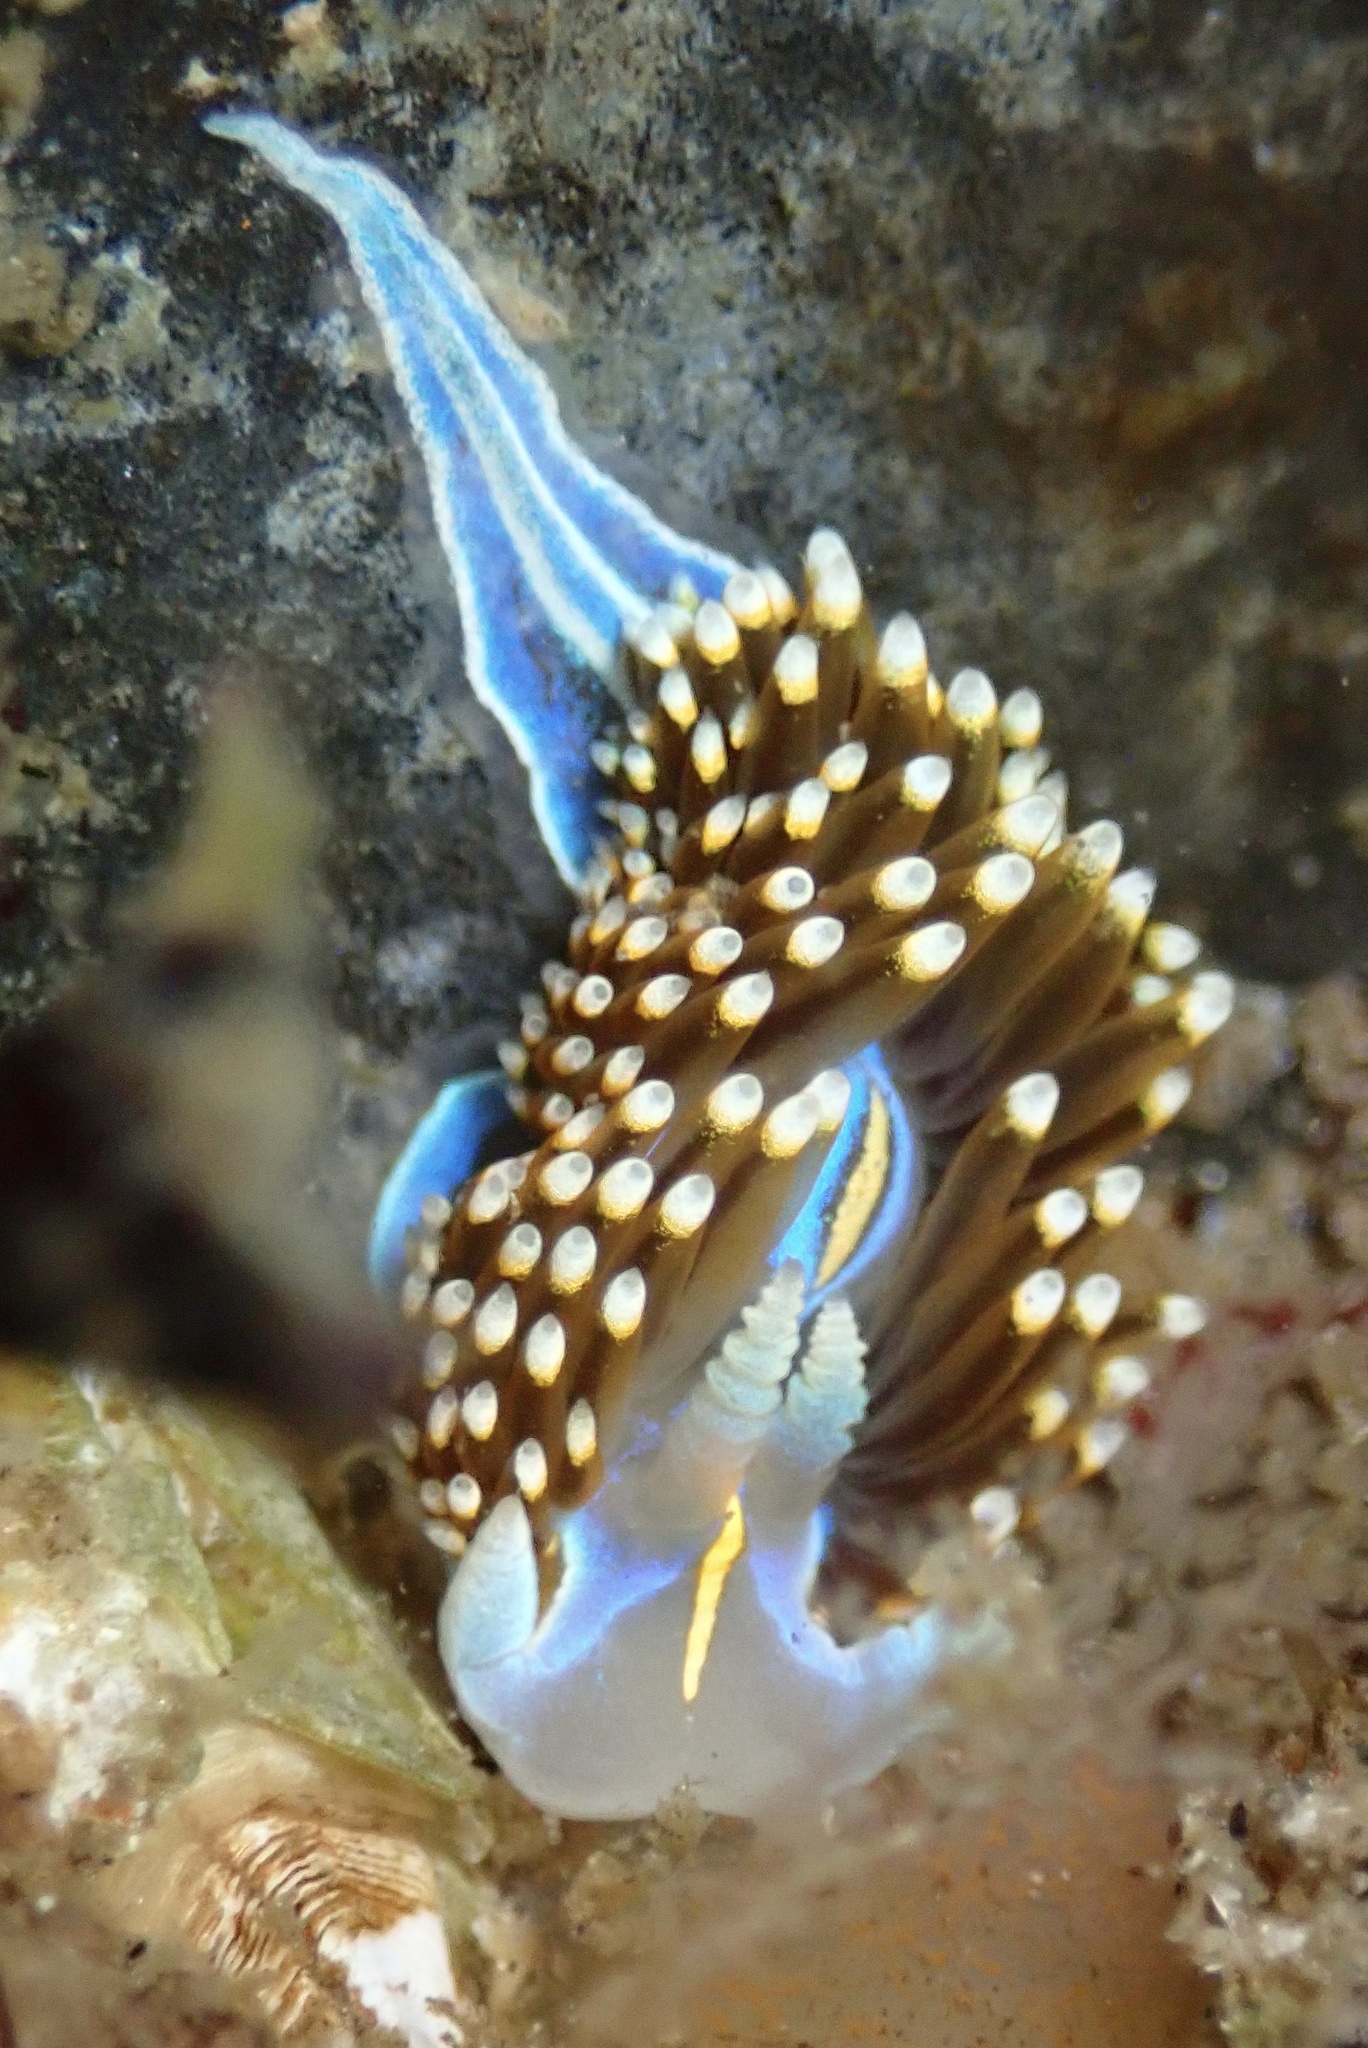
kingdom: Animalia
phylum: Mollusca
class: Gastropoda
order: Nudibranchia
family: Myrrhinidae
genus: Hermissenda
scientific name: Hermissenda opalescens
